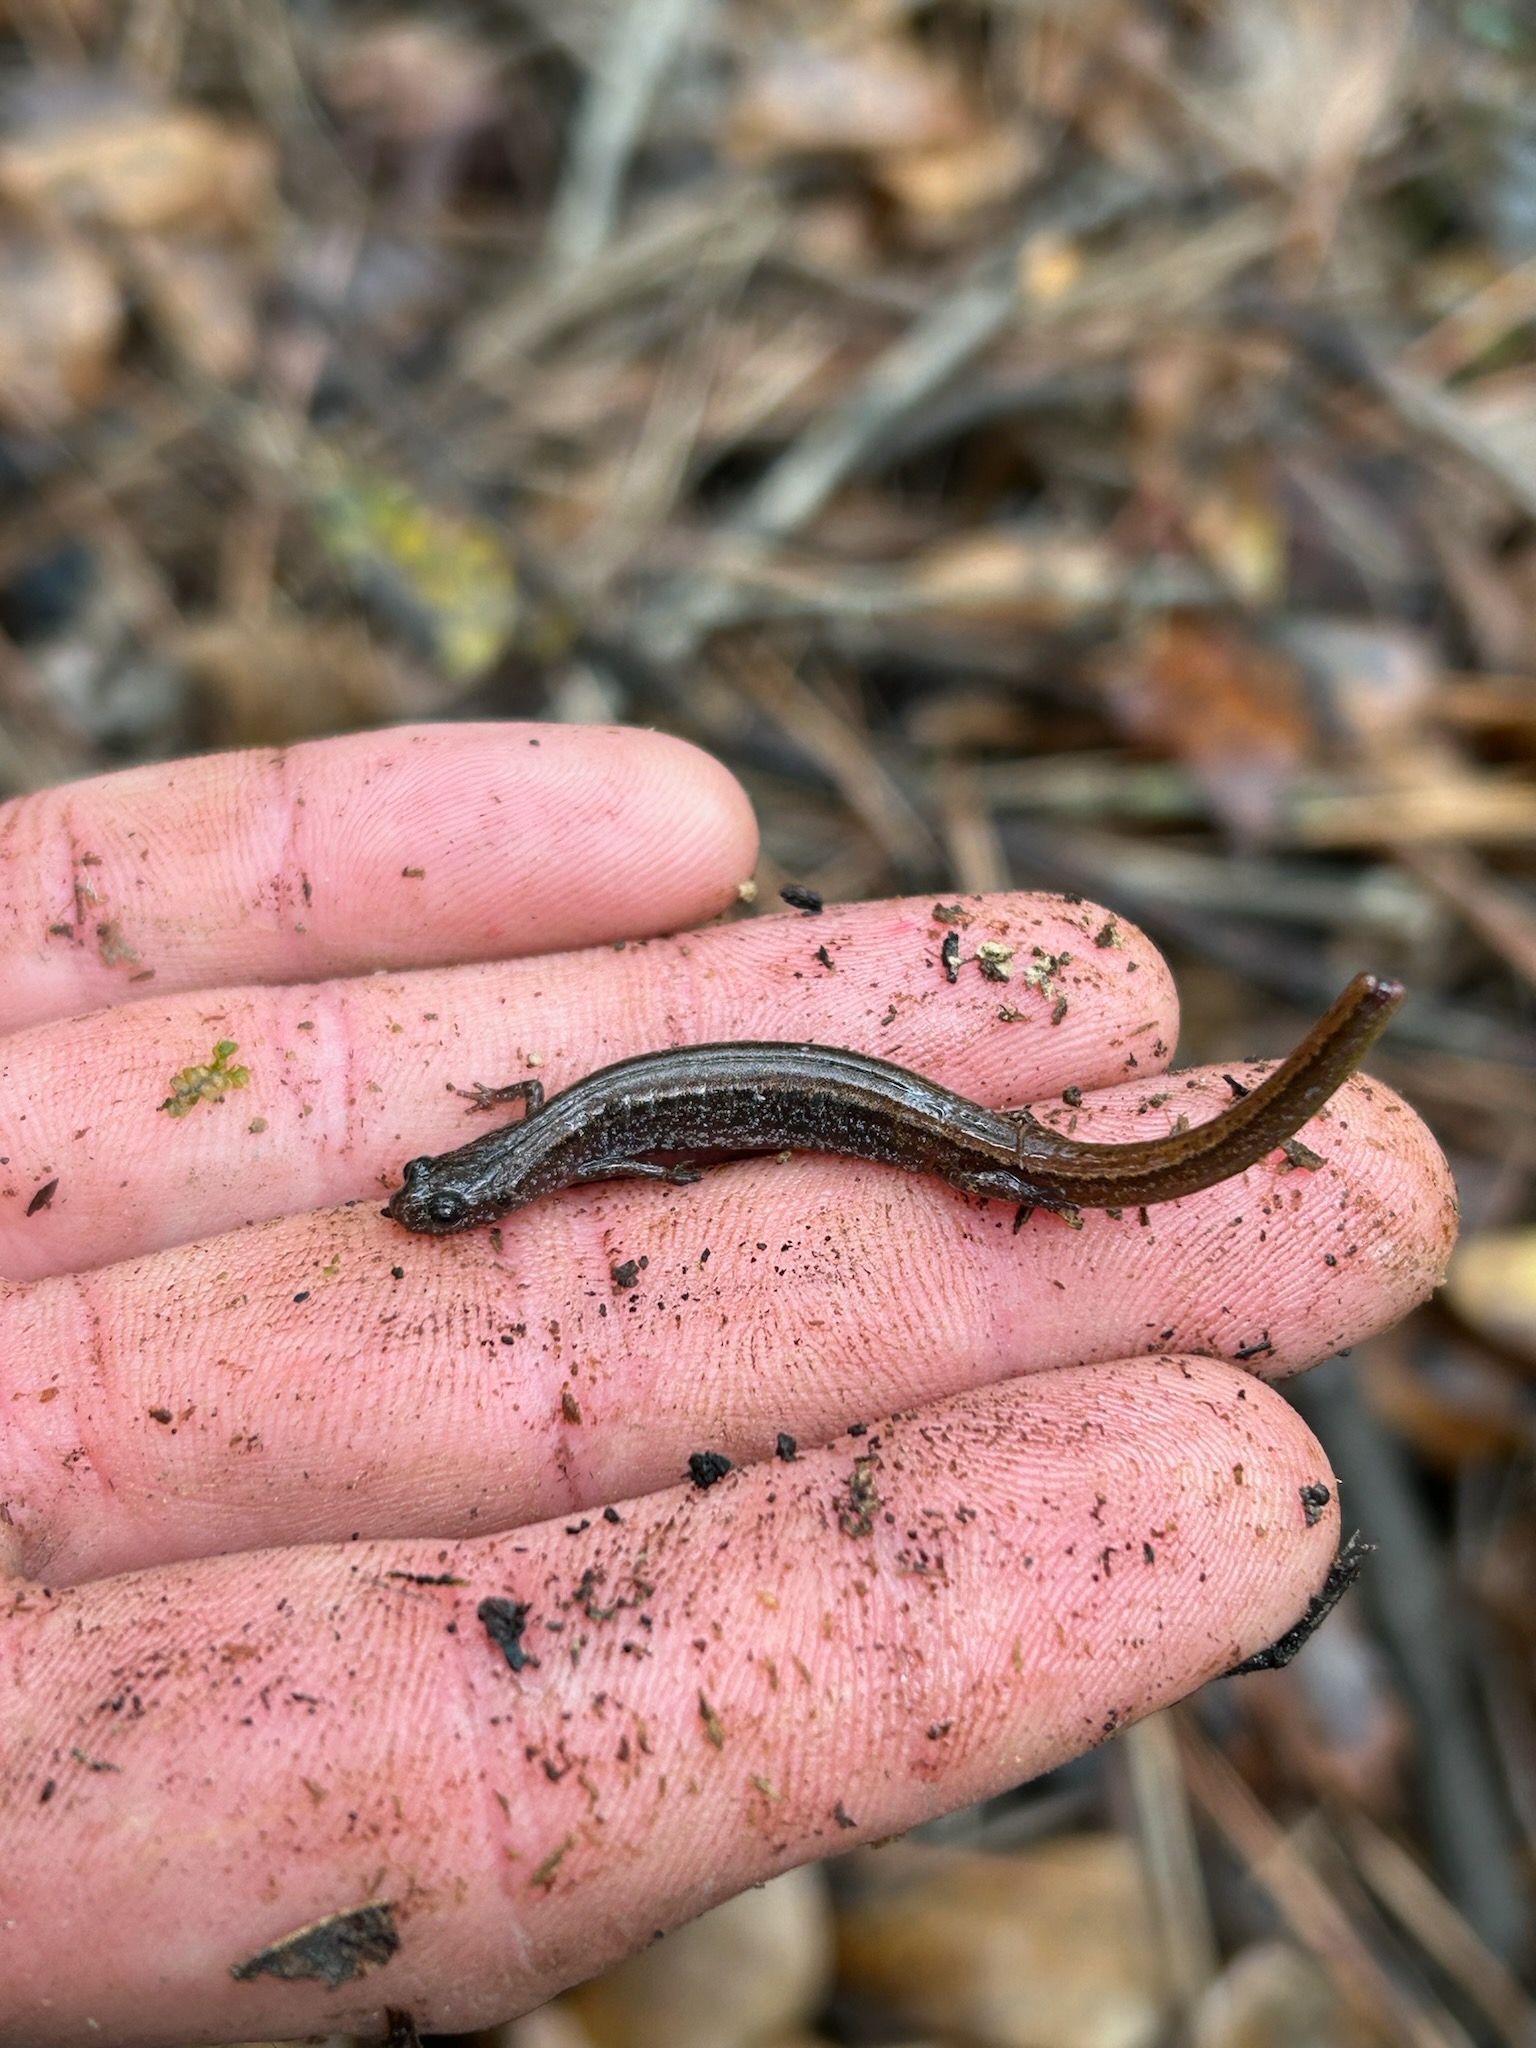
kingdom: Animalia
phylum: Chordata
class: Amphibia
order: Caudata
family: Plethodontidae
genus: Eurycea
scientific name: Eurycea paludicola
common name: Western dwarf salamander
